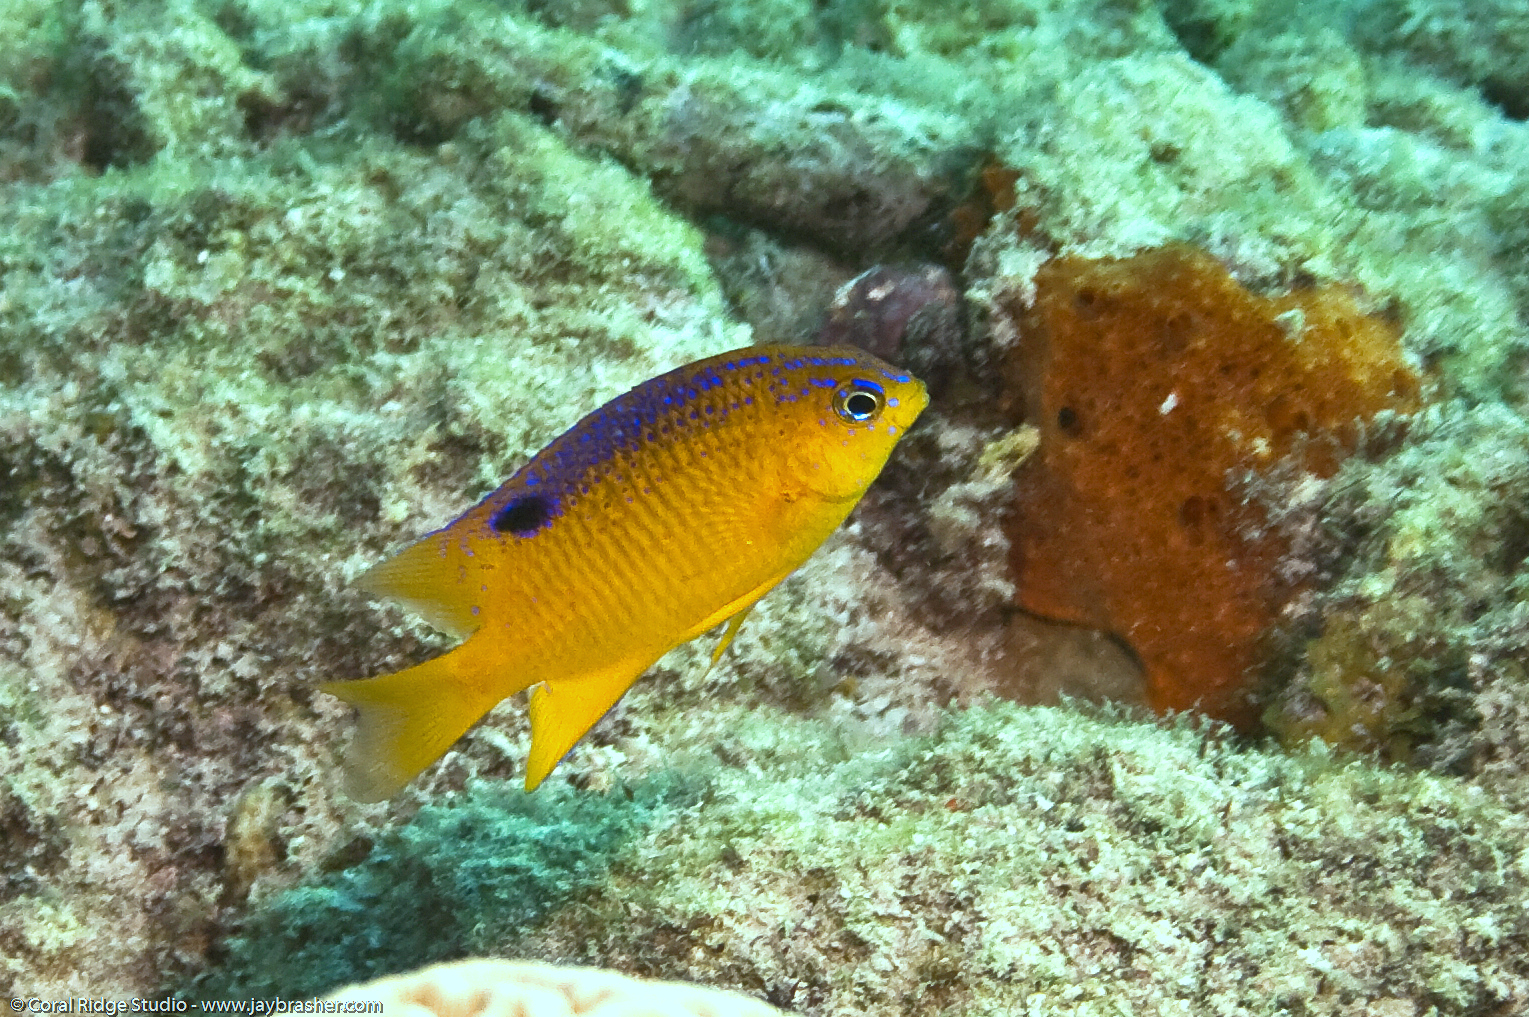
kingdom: Animalia
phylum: Chordata
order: Perciformes
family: Pomacentridae
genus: Stegastes
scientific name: Stegastes diencaeus
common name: Longfin damselfish
